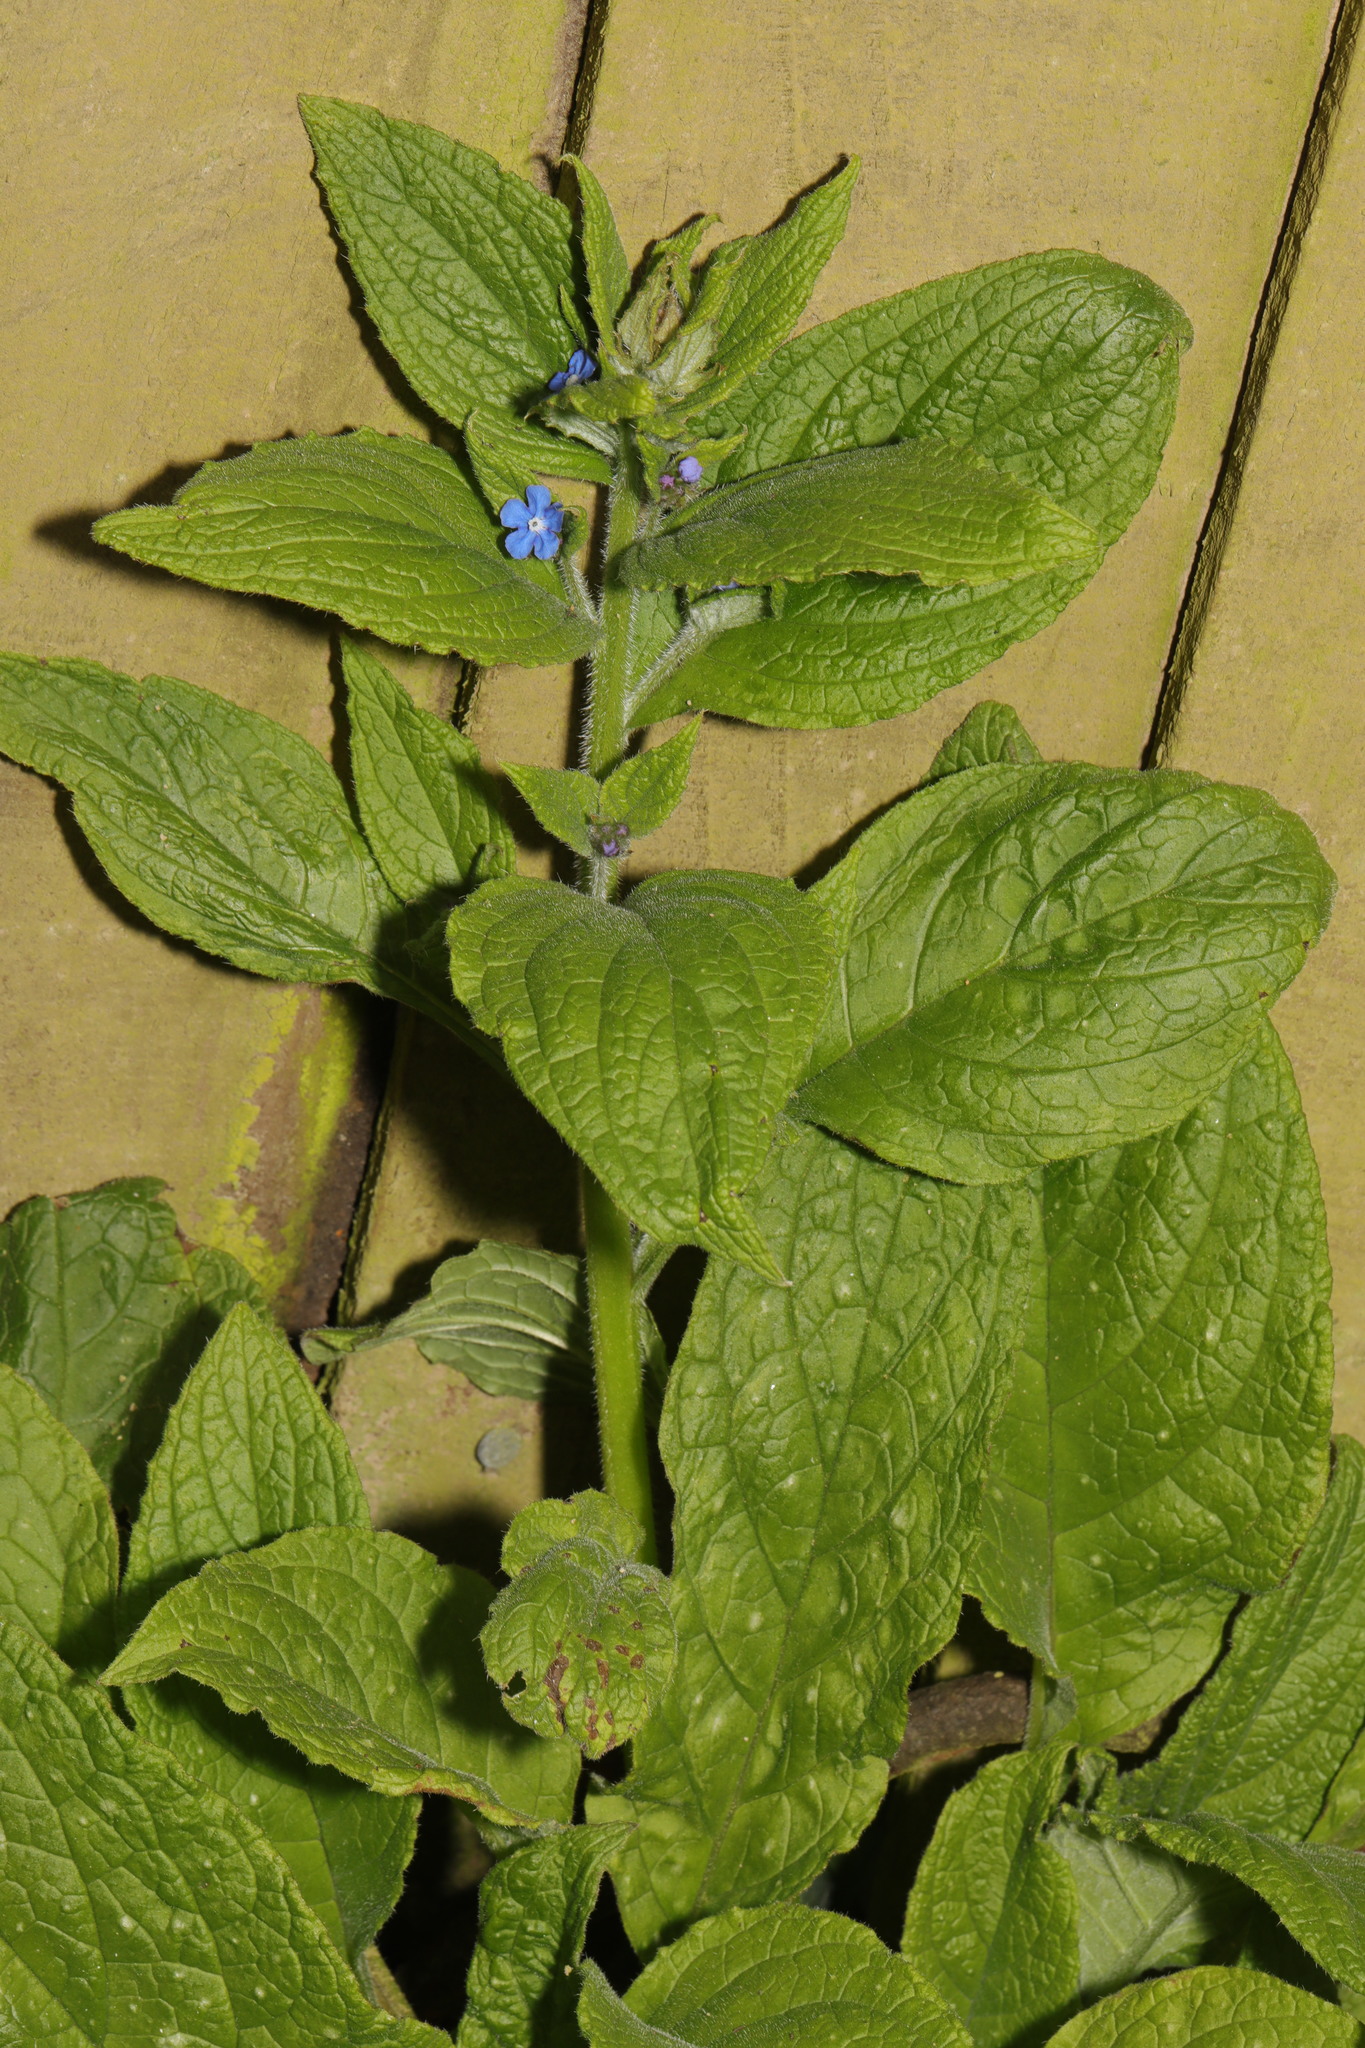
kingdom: Plantae
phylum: Tracheophyta
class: Magnoliopsida
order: Boraginales
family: Boraginaceae
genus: Pentaglottis
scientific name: Pentaglottis sempervirens
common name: Green alkanet
